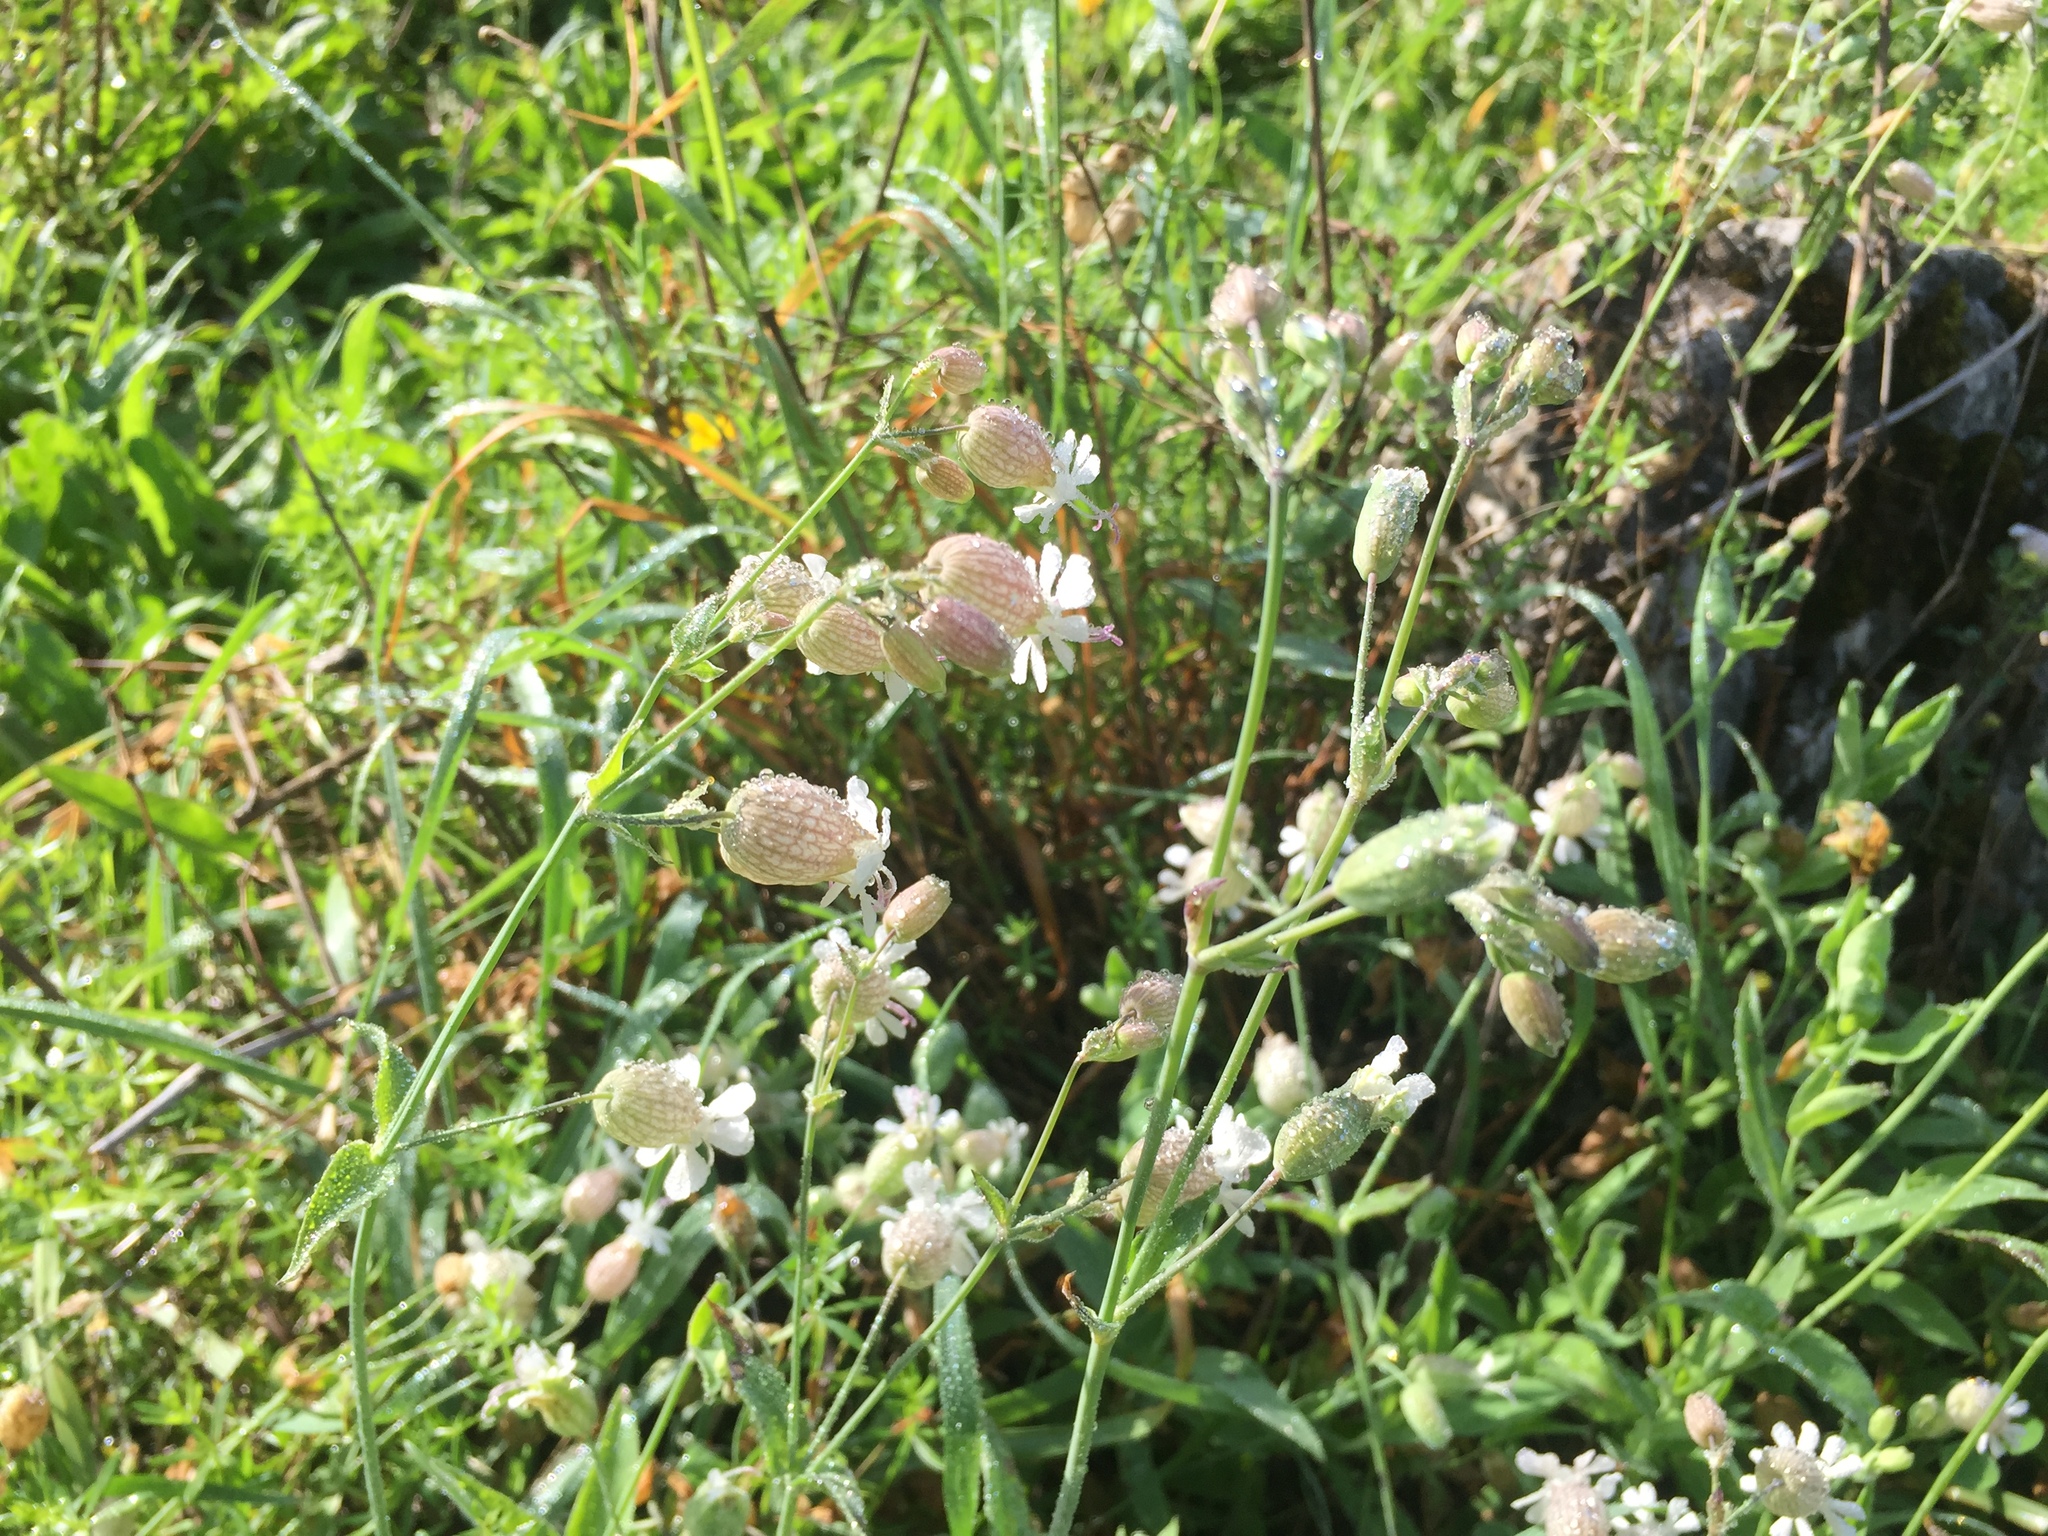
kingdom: Plantae
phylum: Tracheophyta
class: Magnoliopsida
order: Caryophyllales
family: Caryophyllaceae
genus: Silene
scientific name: Silene vulgaris
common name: Bladder campion
